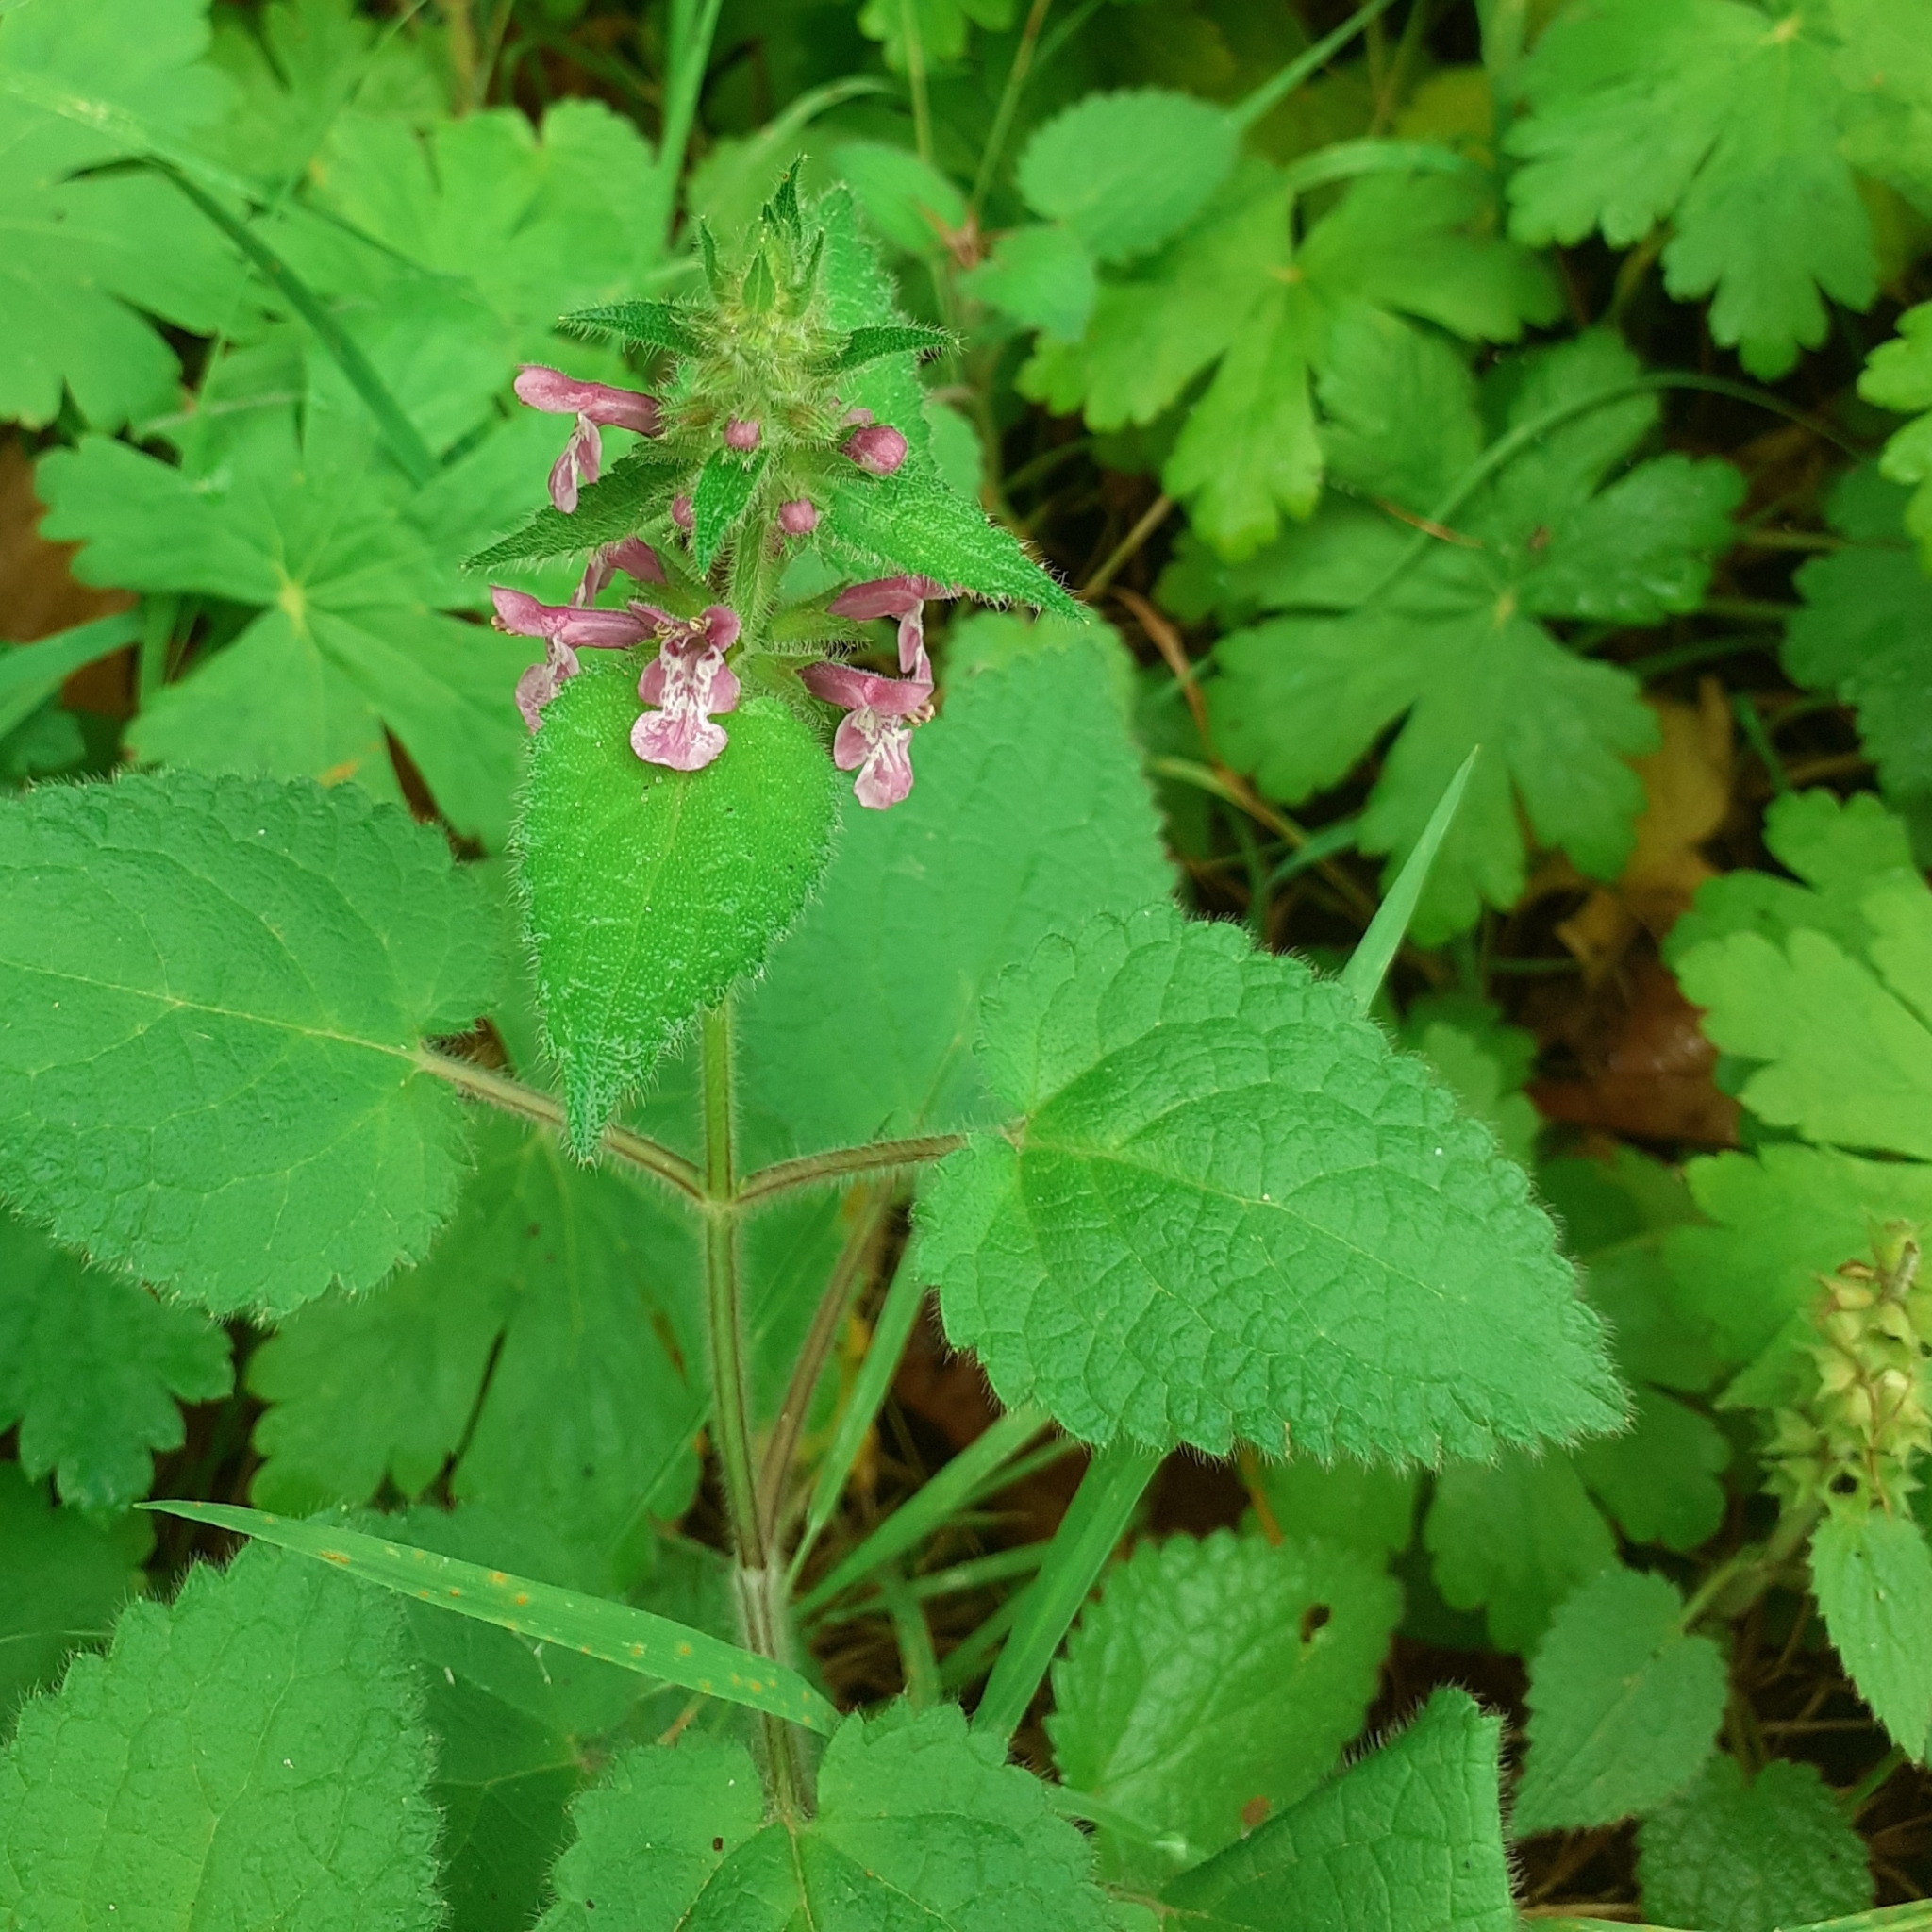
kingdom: Plantae
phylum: Tracheophyta
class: Magnoliopsida
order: Lamiales
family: Lamiaceae
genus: Stachys
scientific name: Stachys sylvatica
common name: Hedge woundwort
